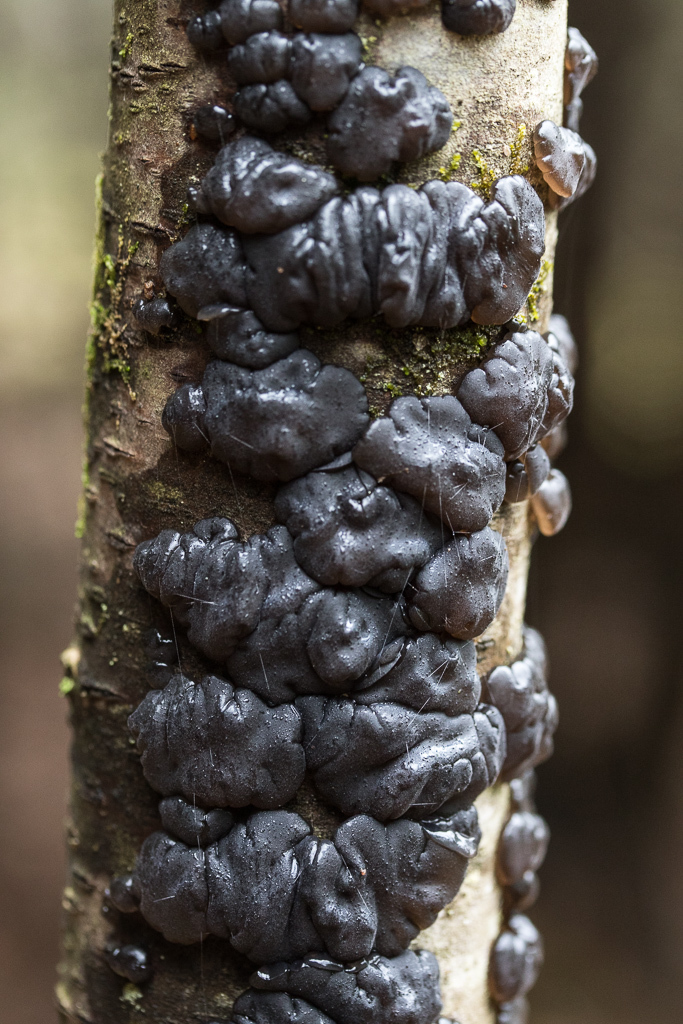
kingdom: Fungi
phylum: Basidiomycota
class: Agaricomycetes
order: Auriculariales
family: Auriculariaceae
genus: Exidia
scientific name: Exidia glandulosa
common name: Witches' butter
